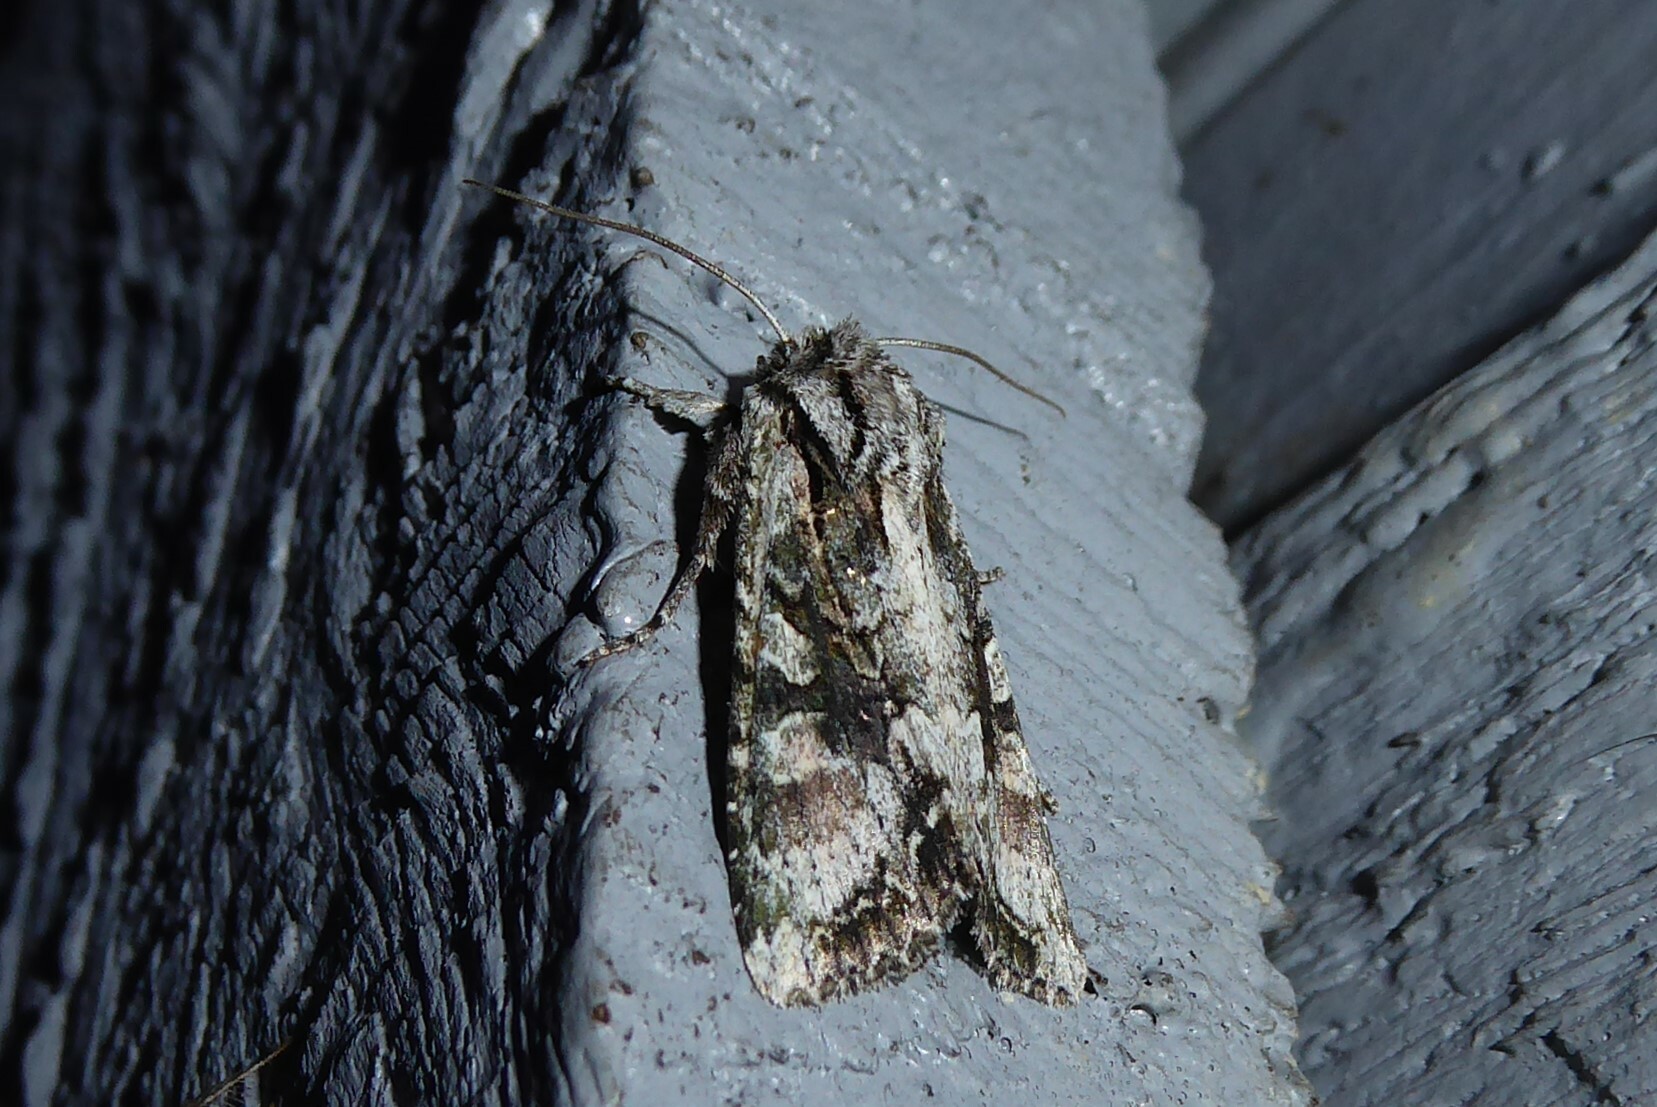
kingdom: Animalia
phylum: Arthropoda
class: Insecta
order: Lepidoptera
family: Noctuidae
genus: Ichneutica
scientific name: Ichneutica mutans
